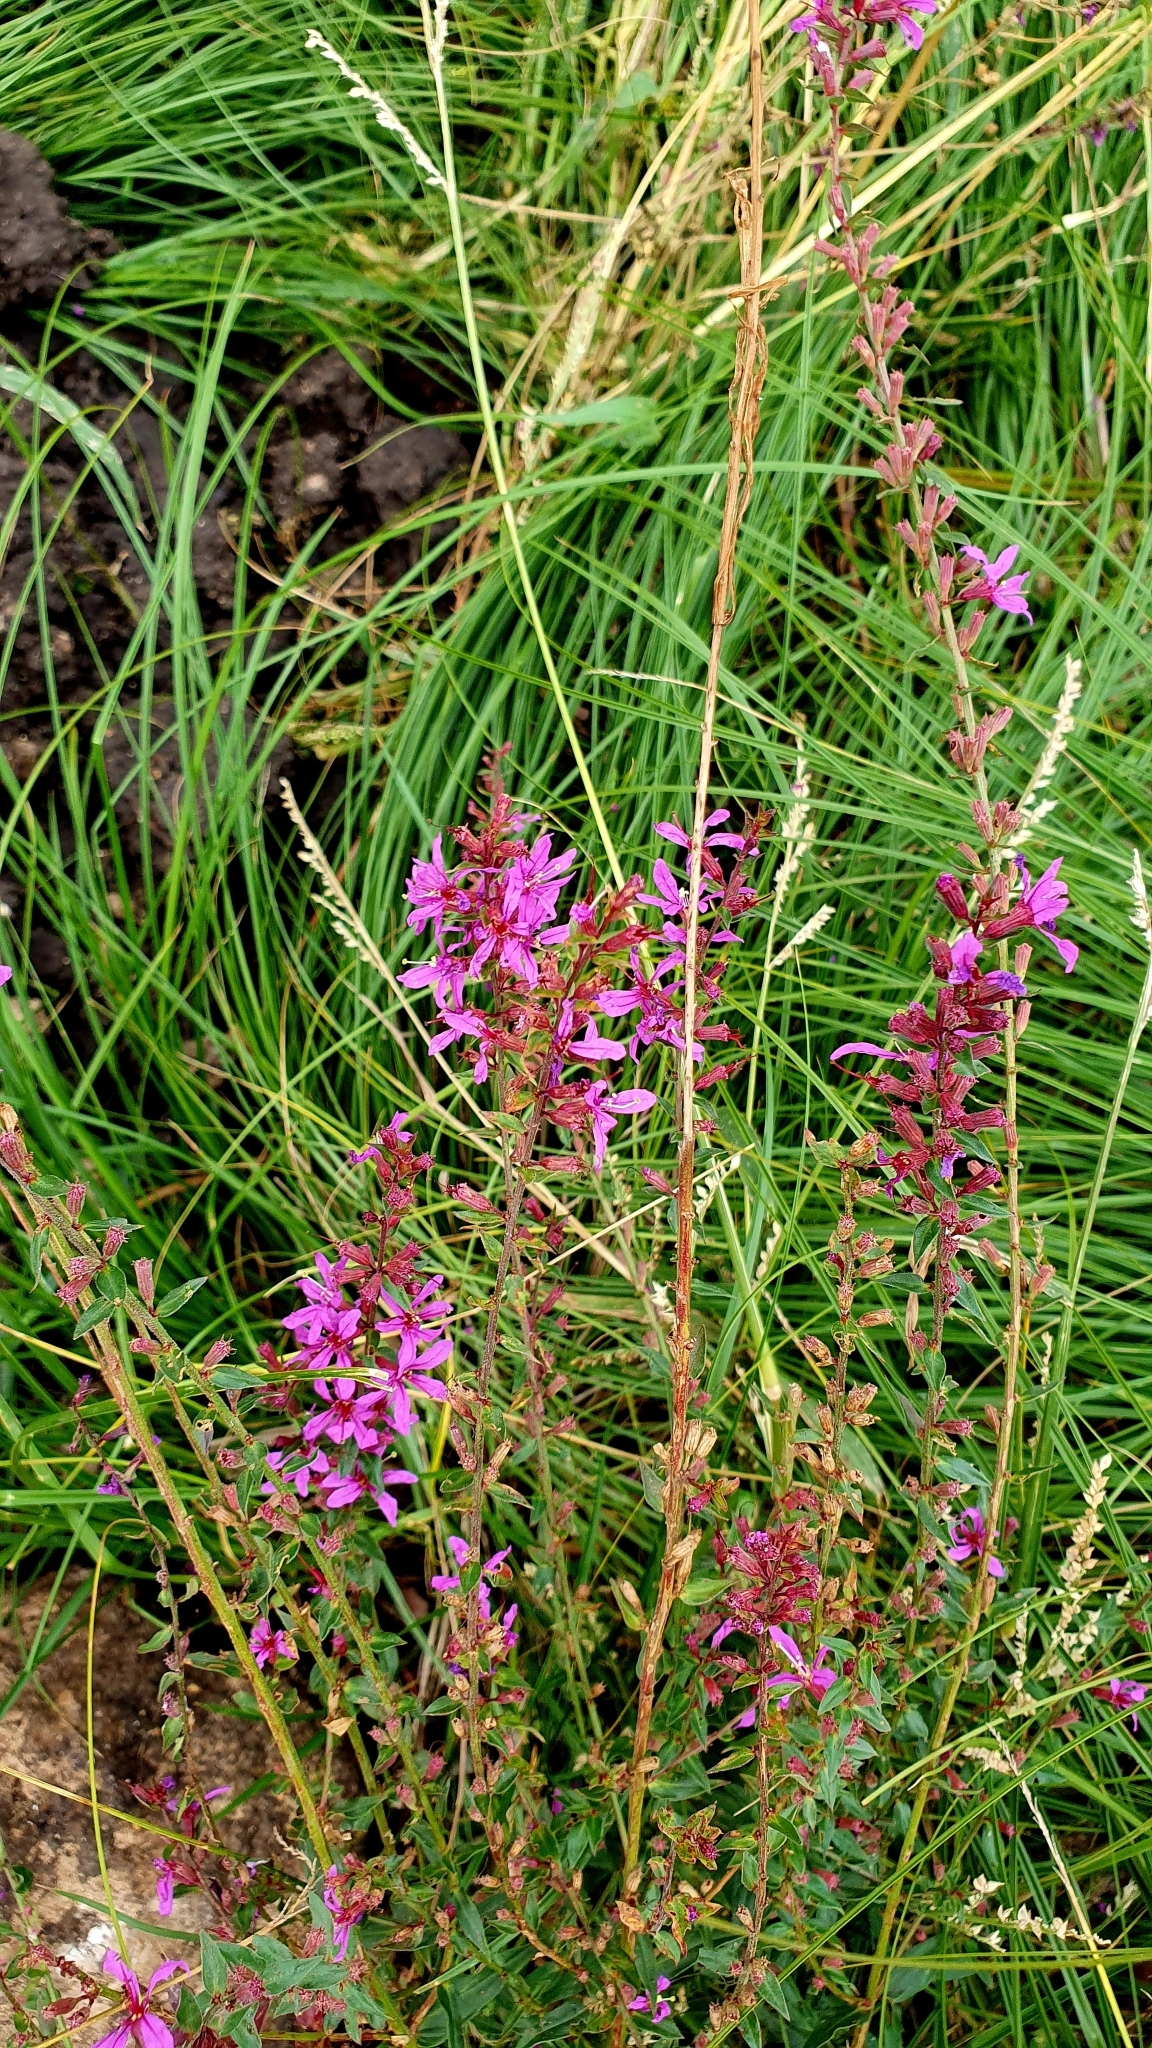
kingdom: Plantae
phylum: Tracheophyta
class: Magnoliopsida
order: Myrtales
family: Lythraceae
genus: Lythrum
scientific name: Lythrum virgatum
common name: European wand loosestrife
